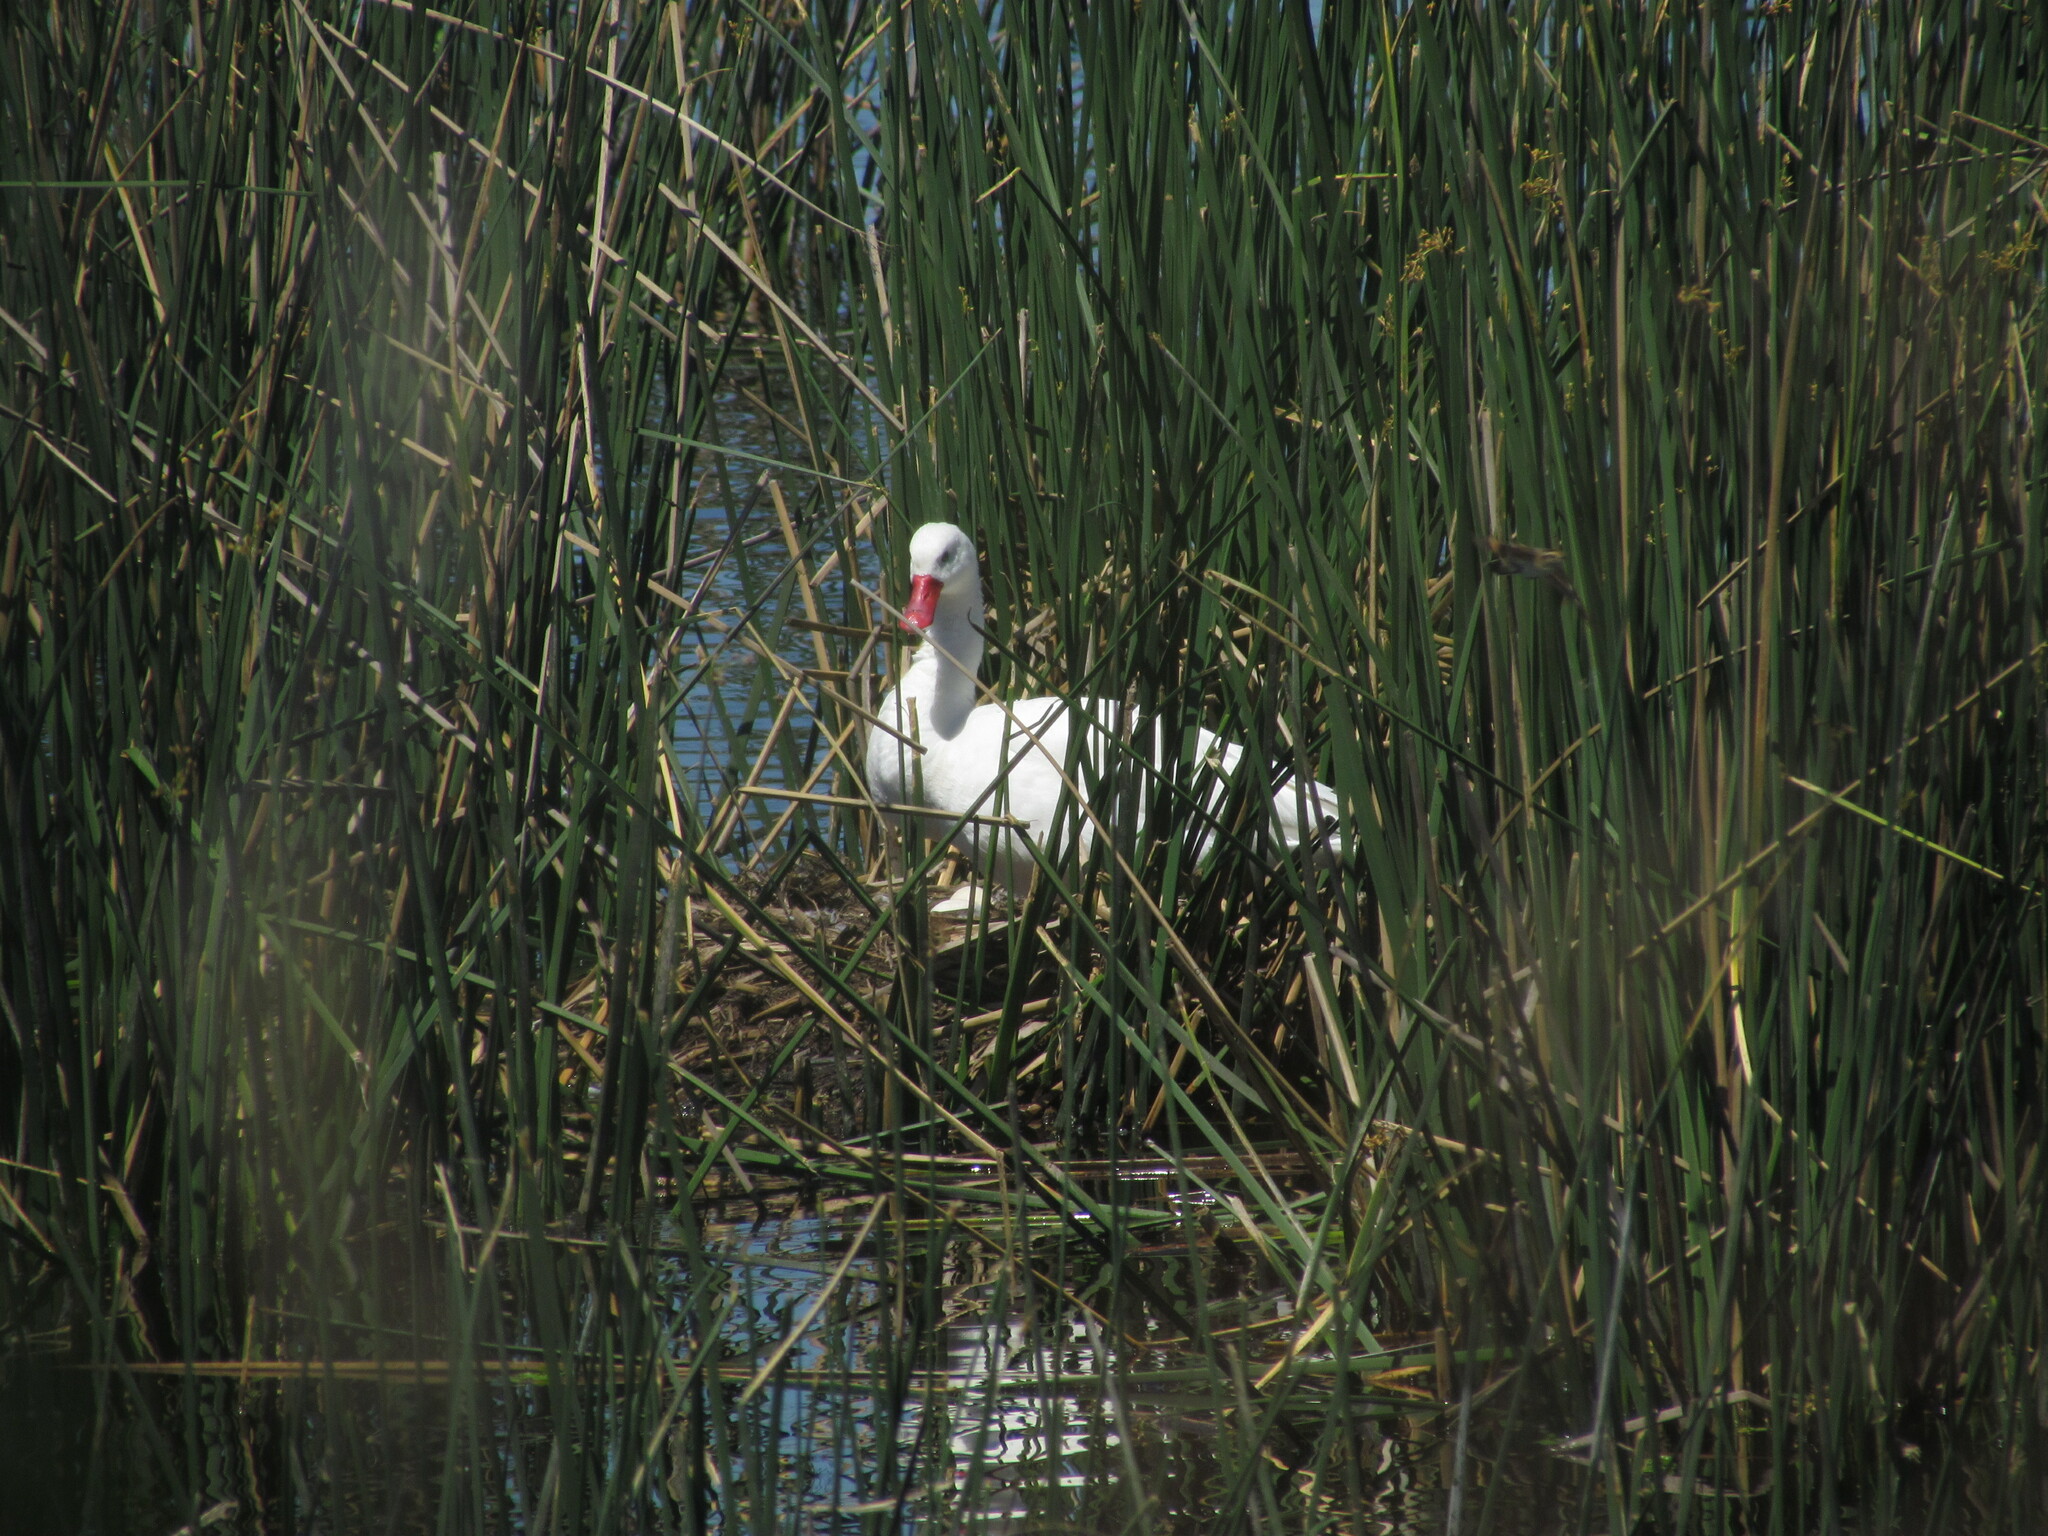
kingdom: Animalia
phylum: Chordata
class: Aves
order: Anseriformes
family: Anatidae
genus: Coscoroba
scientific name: Coscoroba coscoroba
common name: Coscoroba swan
